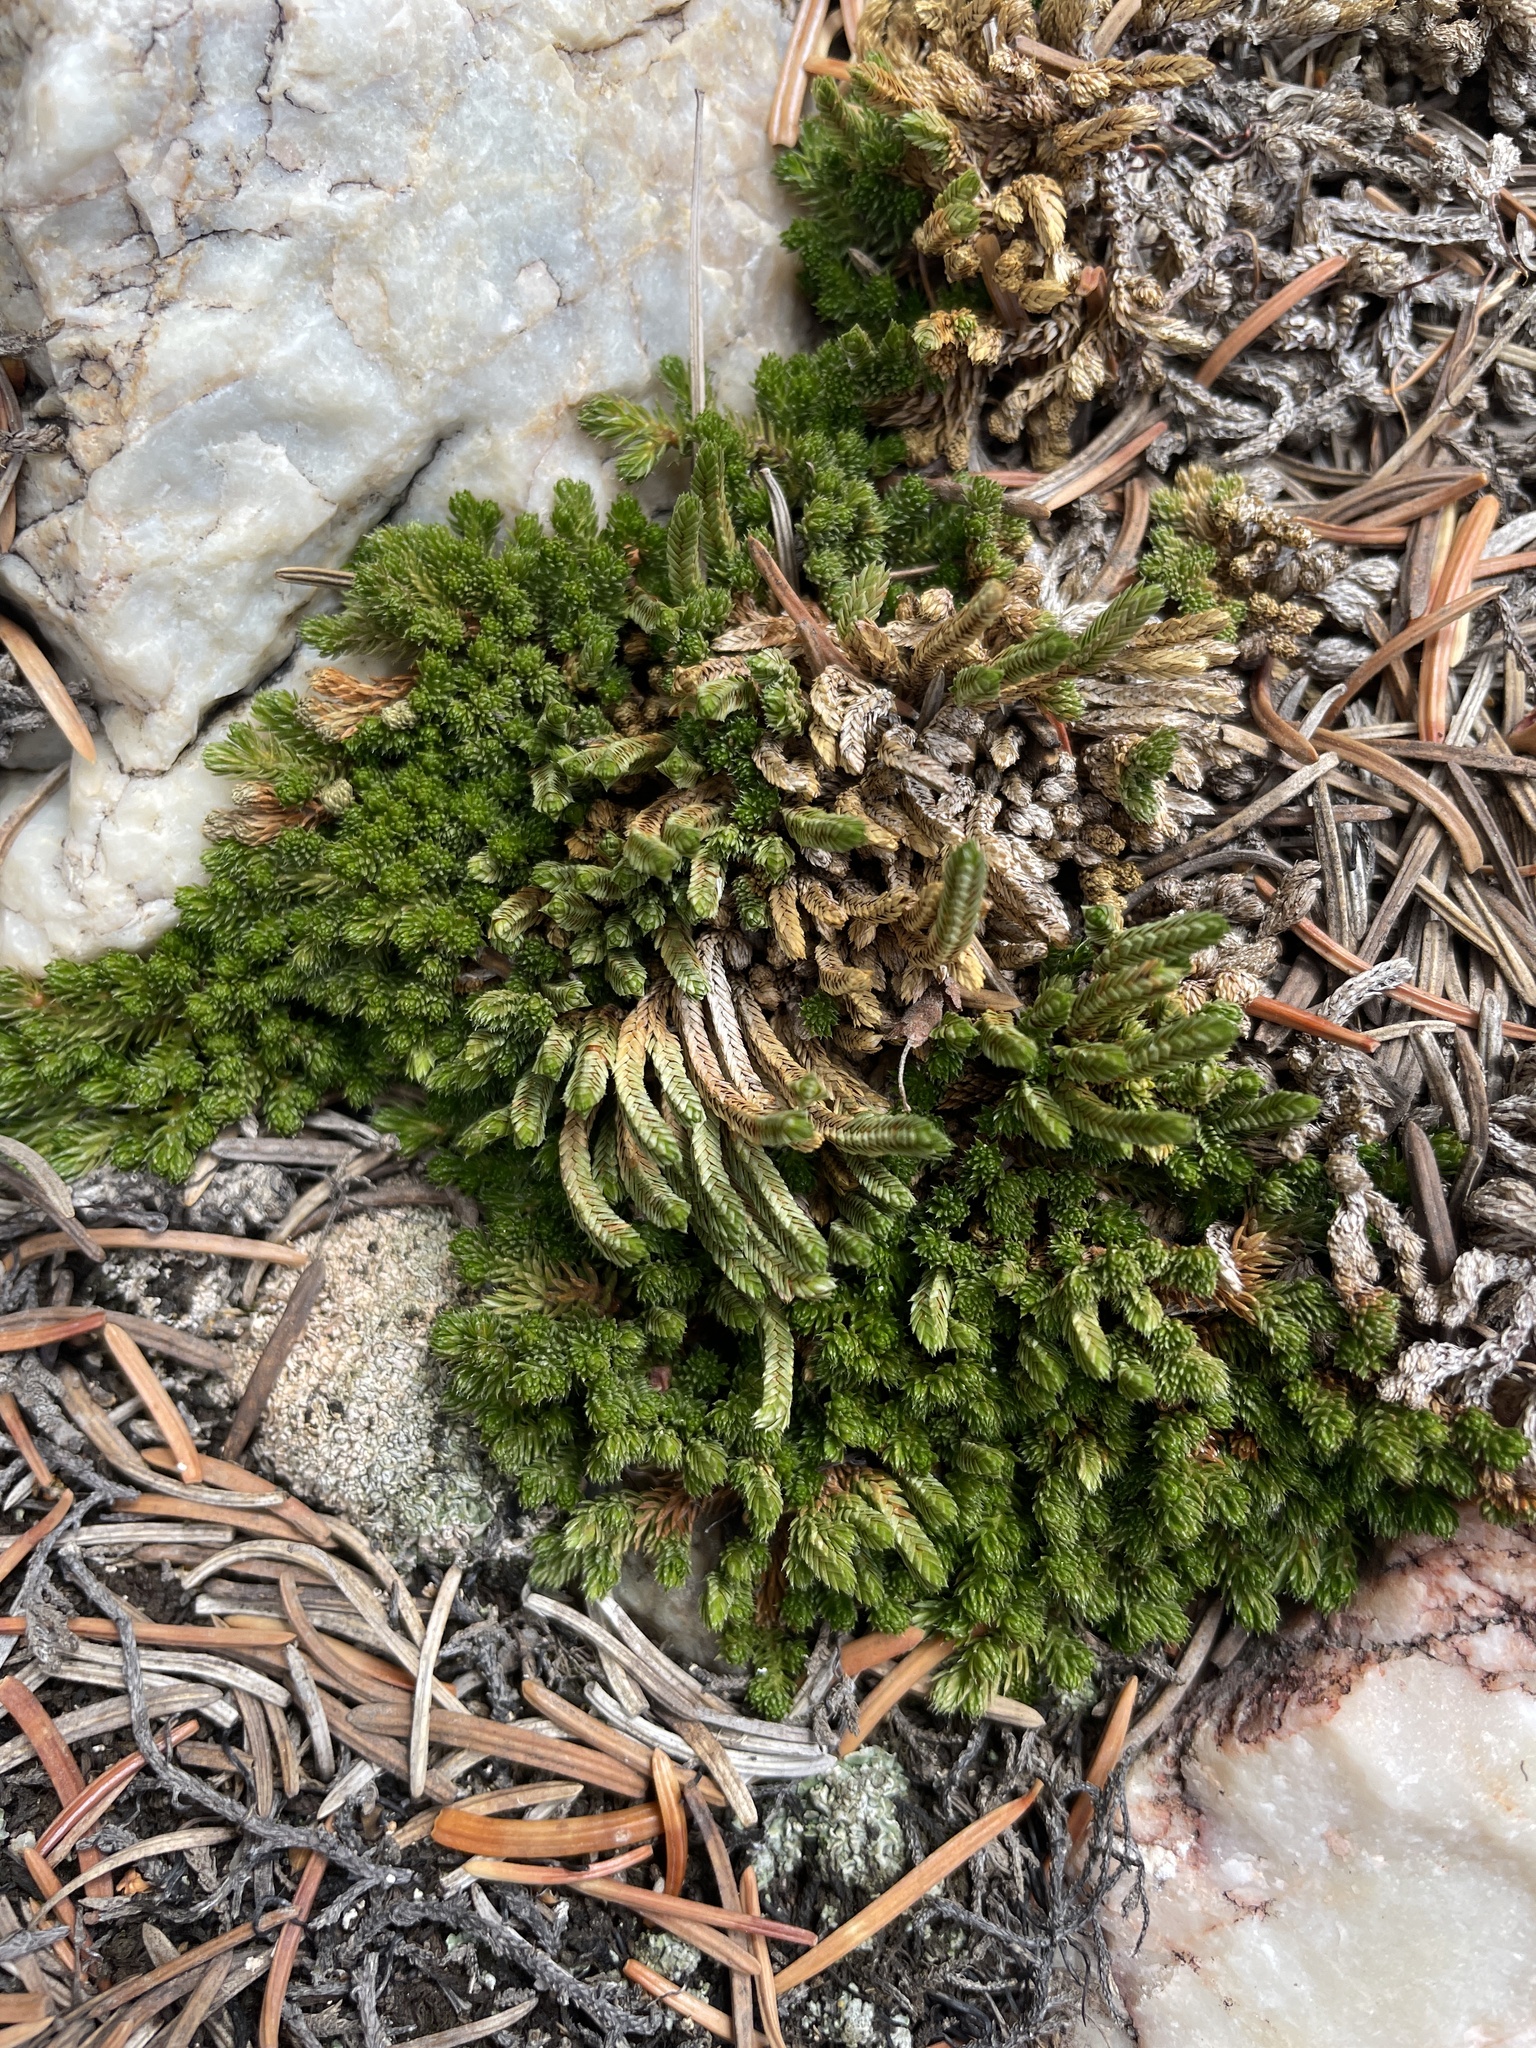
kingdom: Plantae
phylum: Tracheophyta
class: Lycopodiopsida
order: Selaginellales
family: Selaginellaceae
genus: Selaginella
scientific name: Selaginella watsonii
